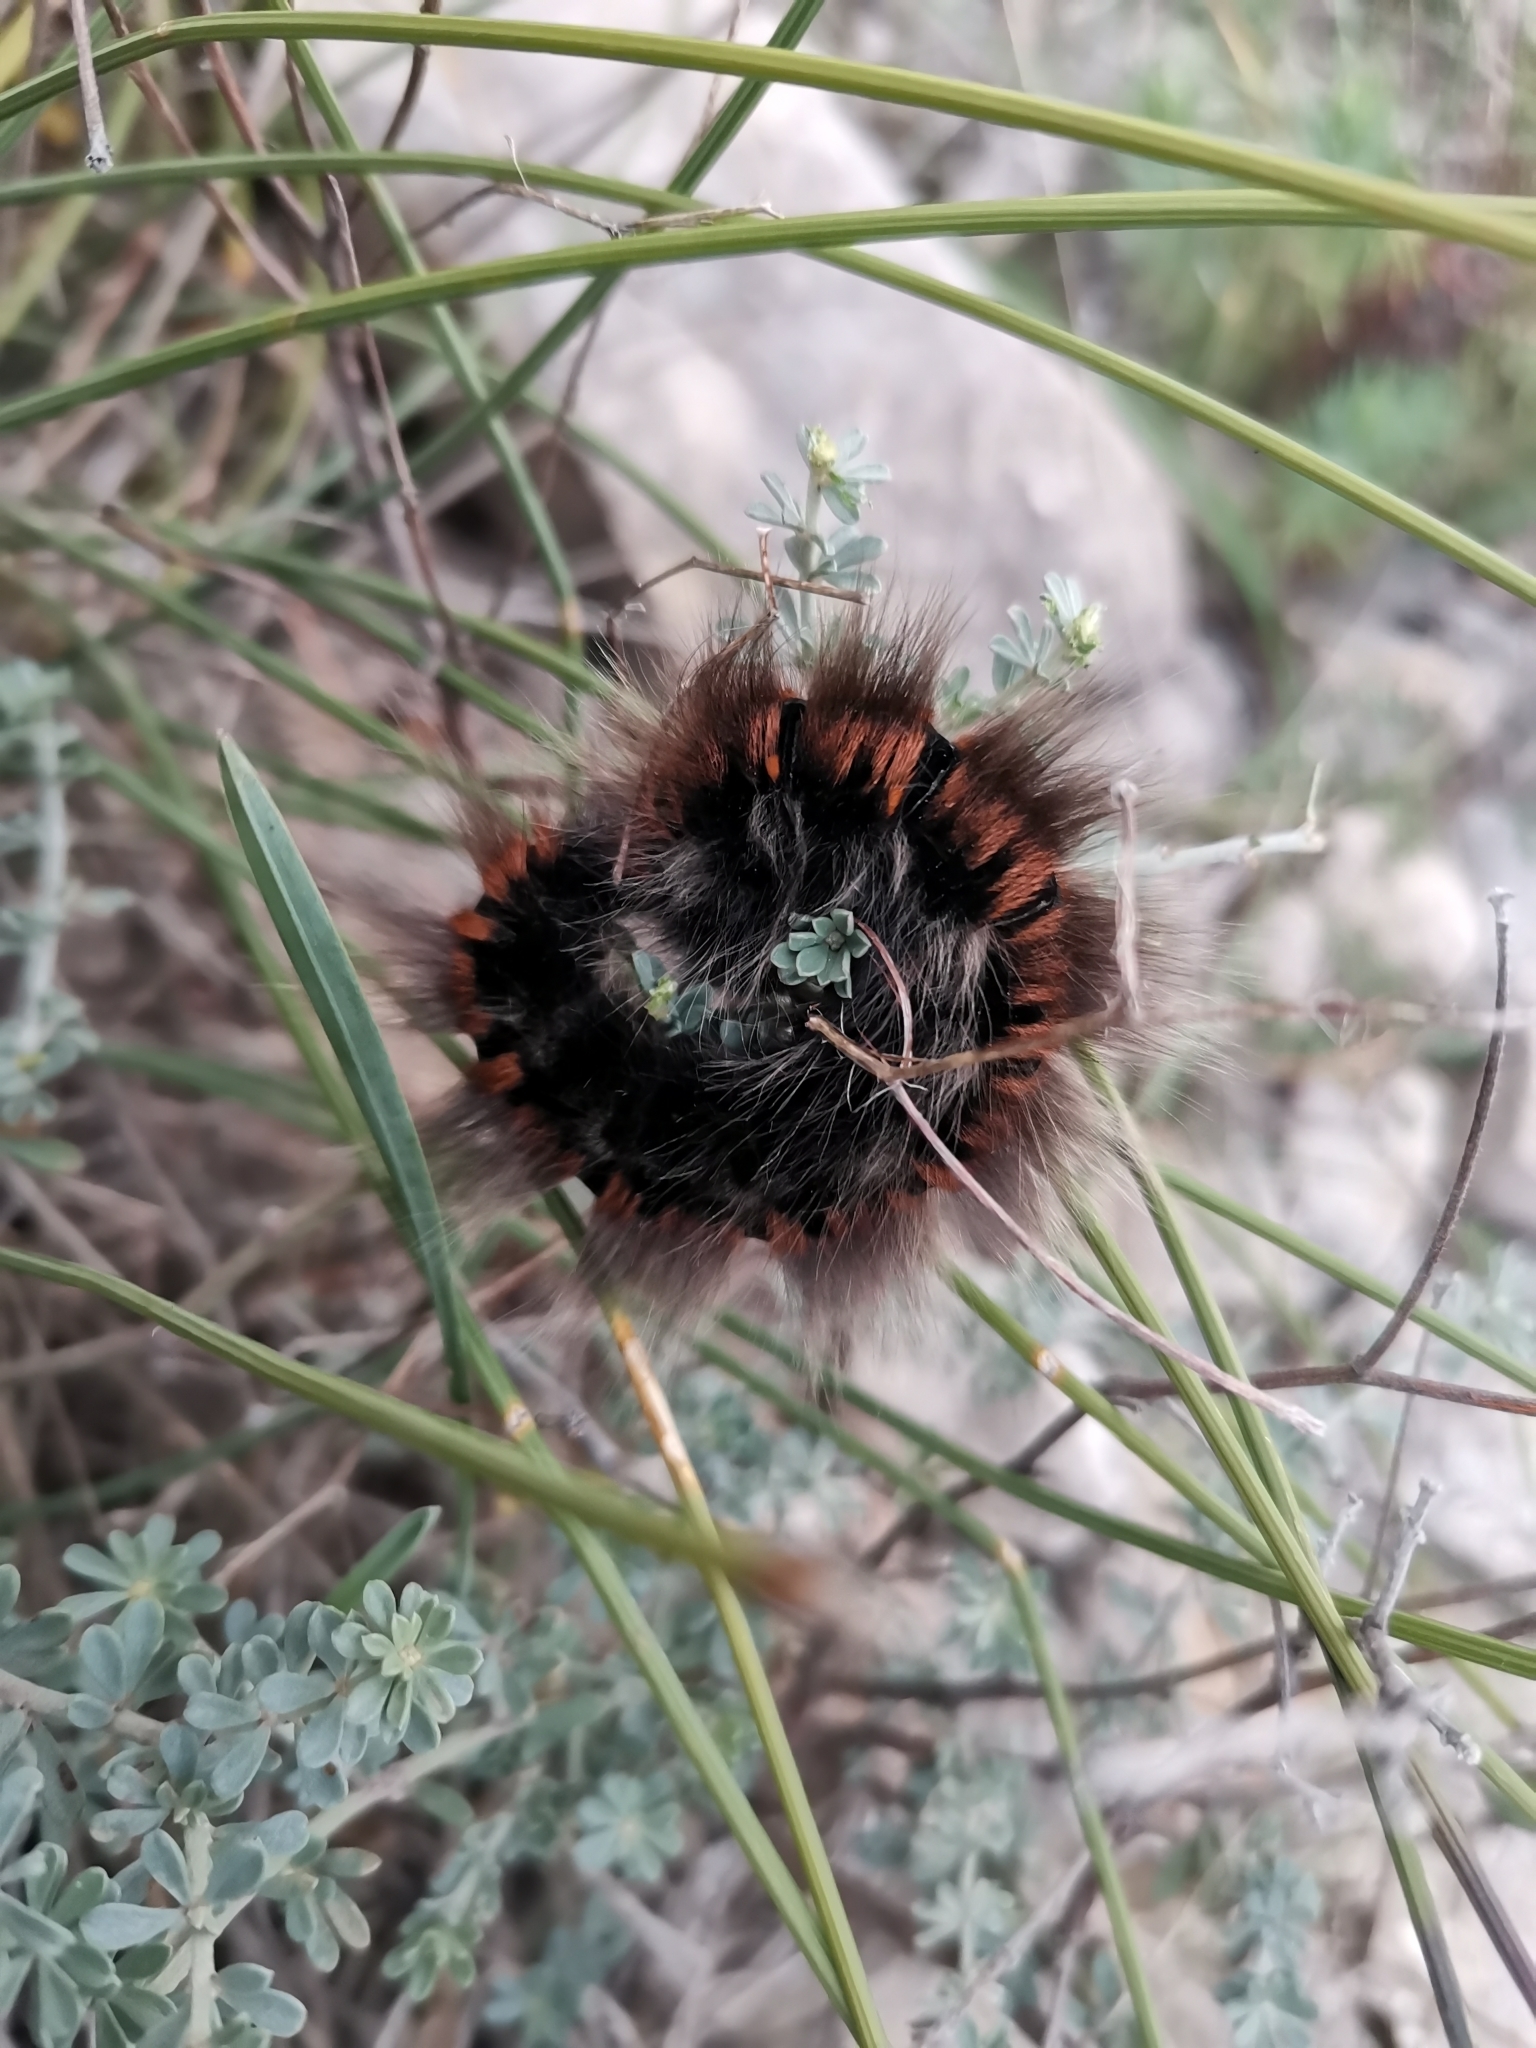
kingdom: Animalia
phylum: Arthropoda
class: Insecta
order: Lepidoptera
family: Lasiocampidae
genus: Macrothylacia
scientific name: Macrothylacia rubi
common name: Fox moth
